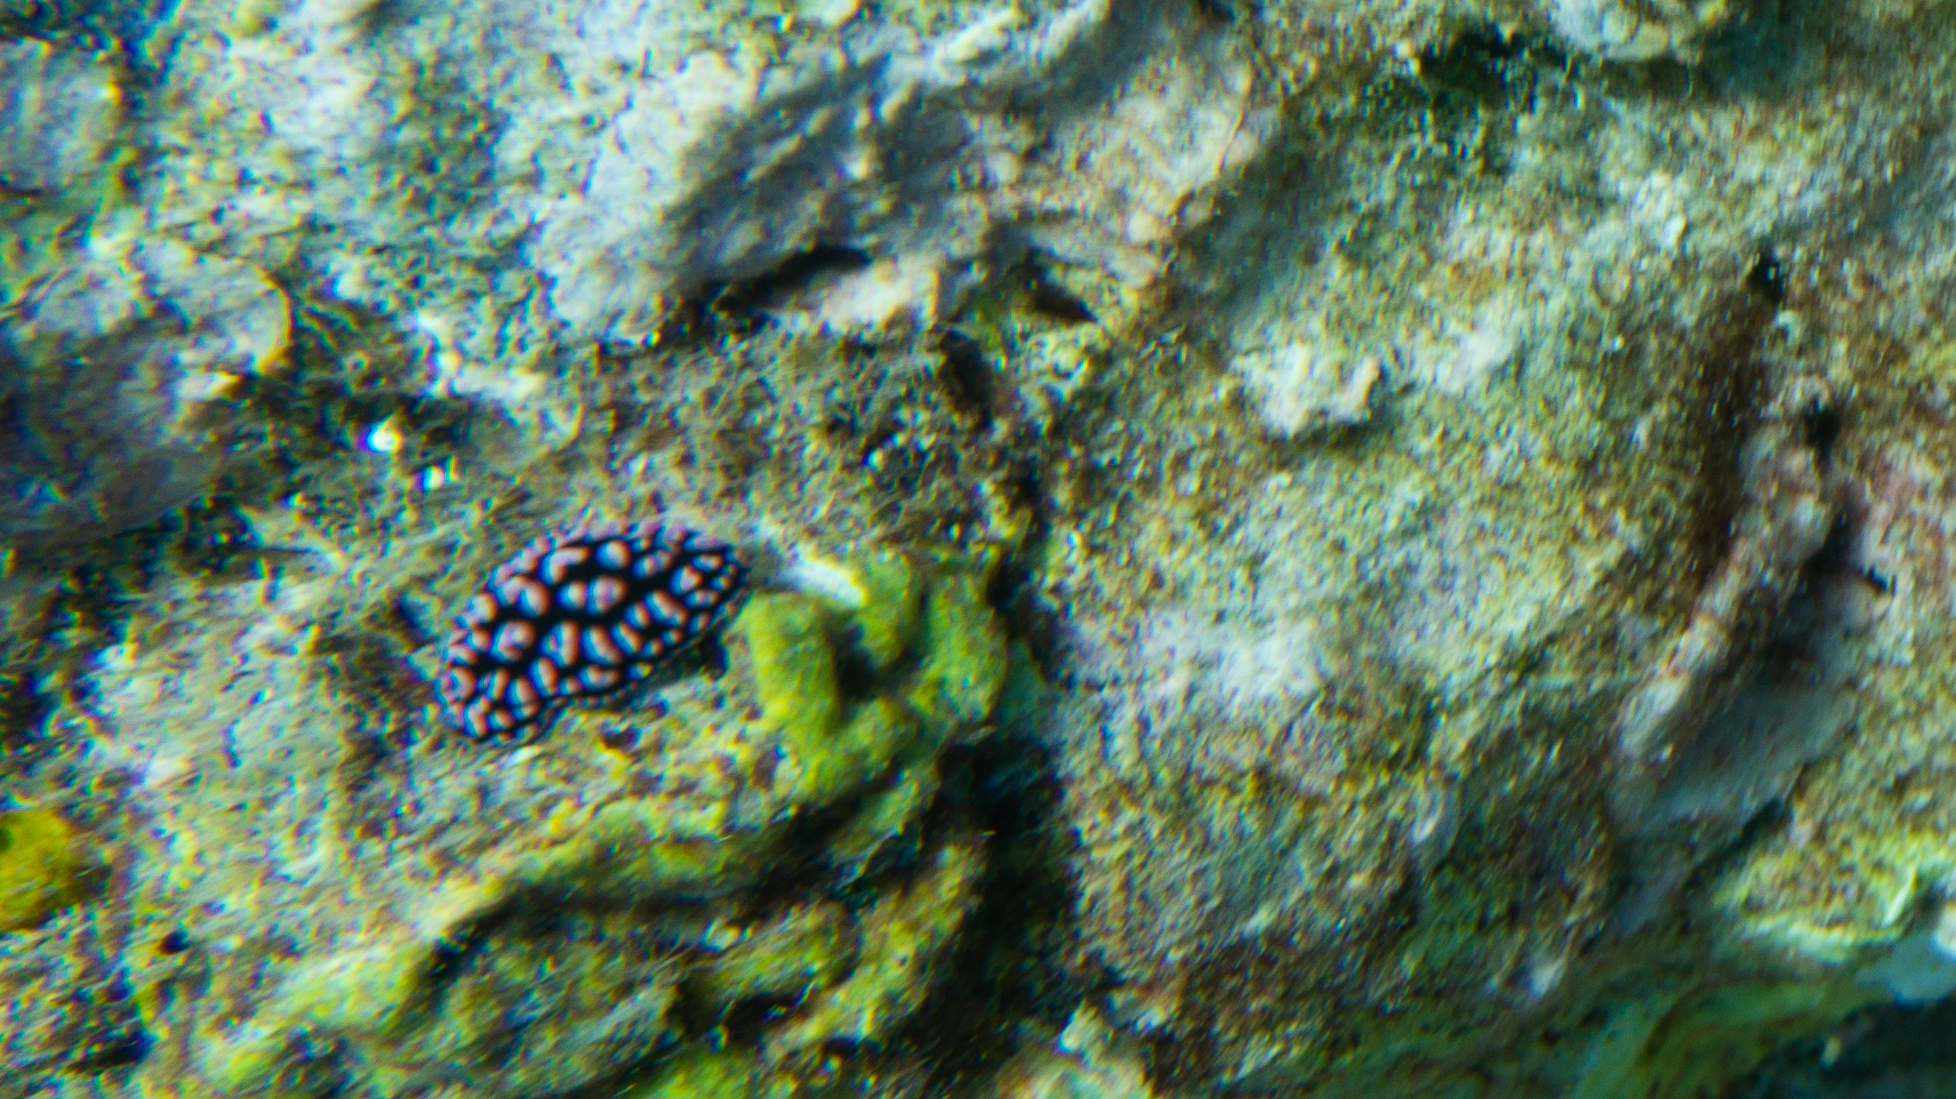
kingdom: Animalia
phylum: Mollusca
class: Gastropoda
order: Nudibranchia
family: Phyllidiidae
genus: Phyllidiella
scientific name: Phyllidiella pustulosa
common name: Pustular phyllidia
